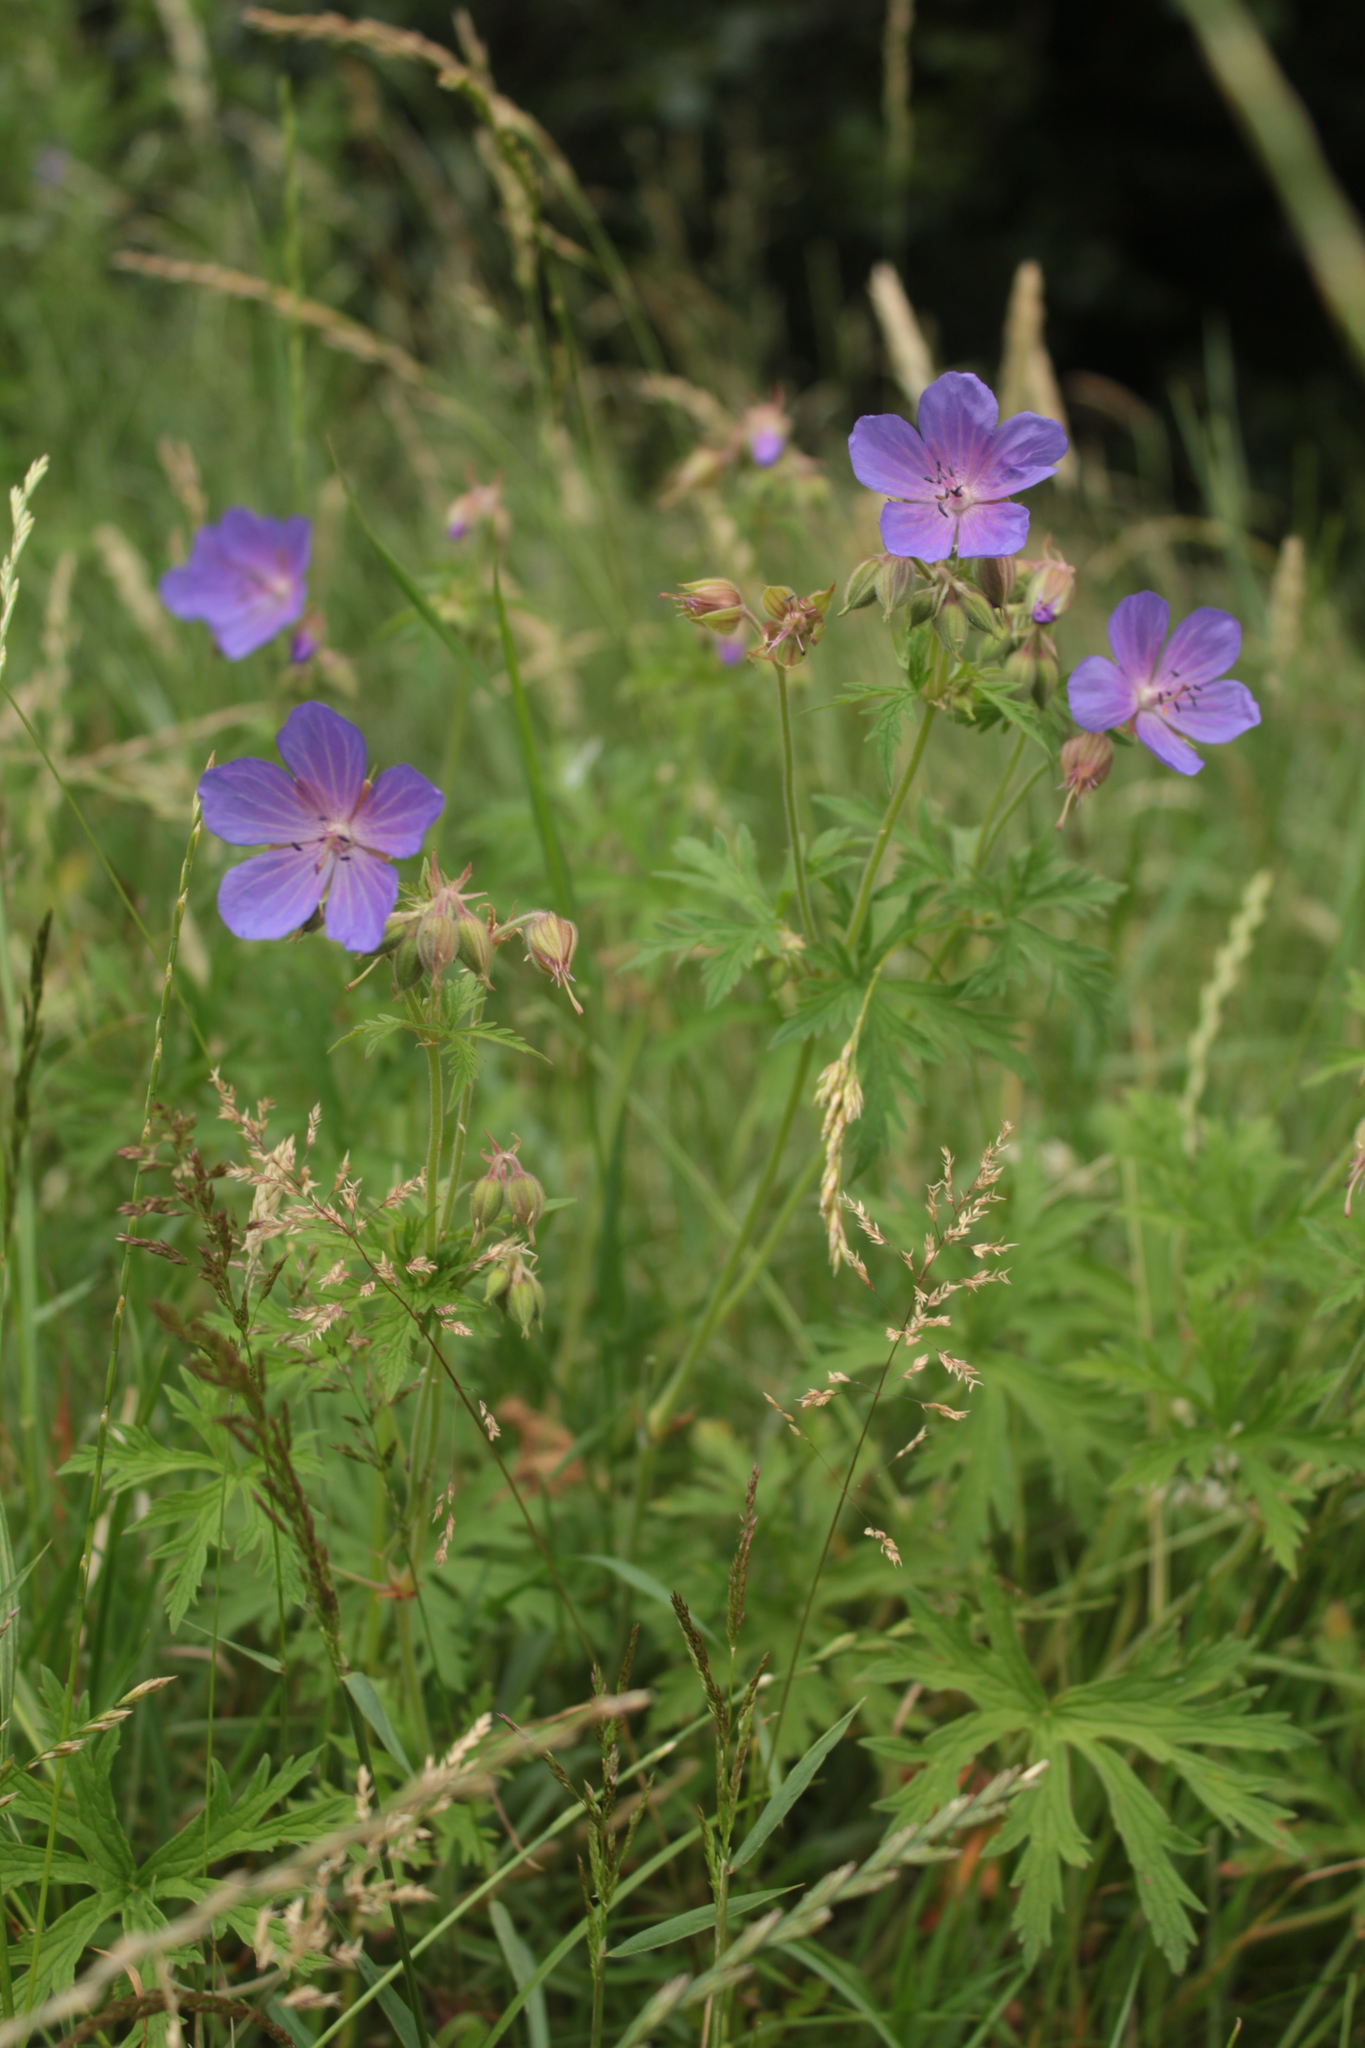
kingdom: Plantae
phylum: Tracheophyta
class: Magnoliopsida
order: Geraniales
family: Geraniaceae
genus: Geranium
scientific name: Geranium pratense
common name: Meadow crane's-bill
